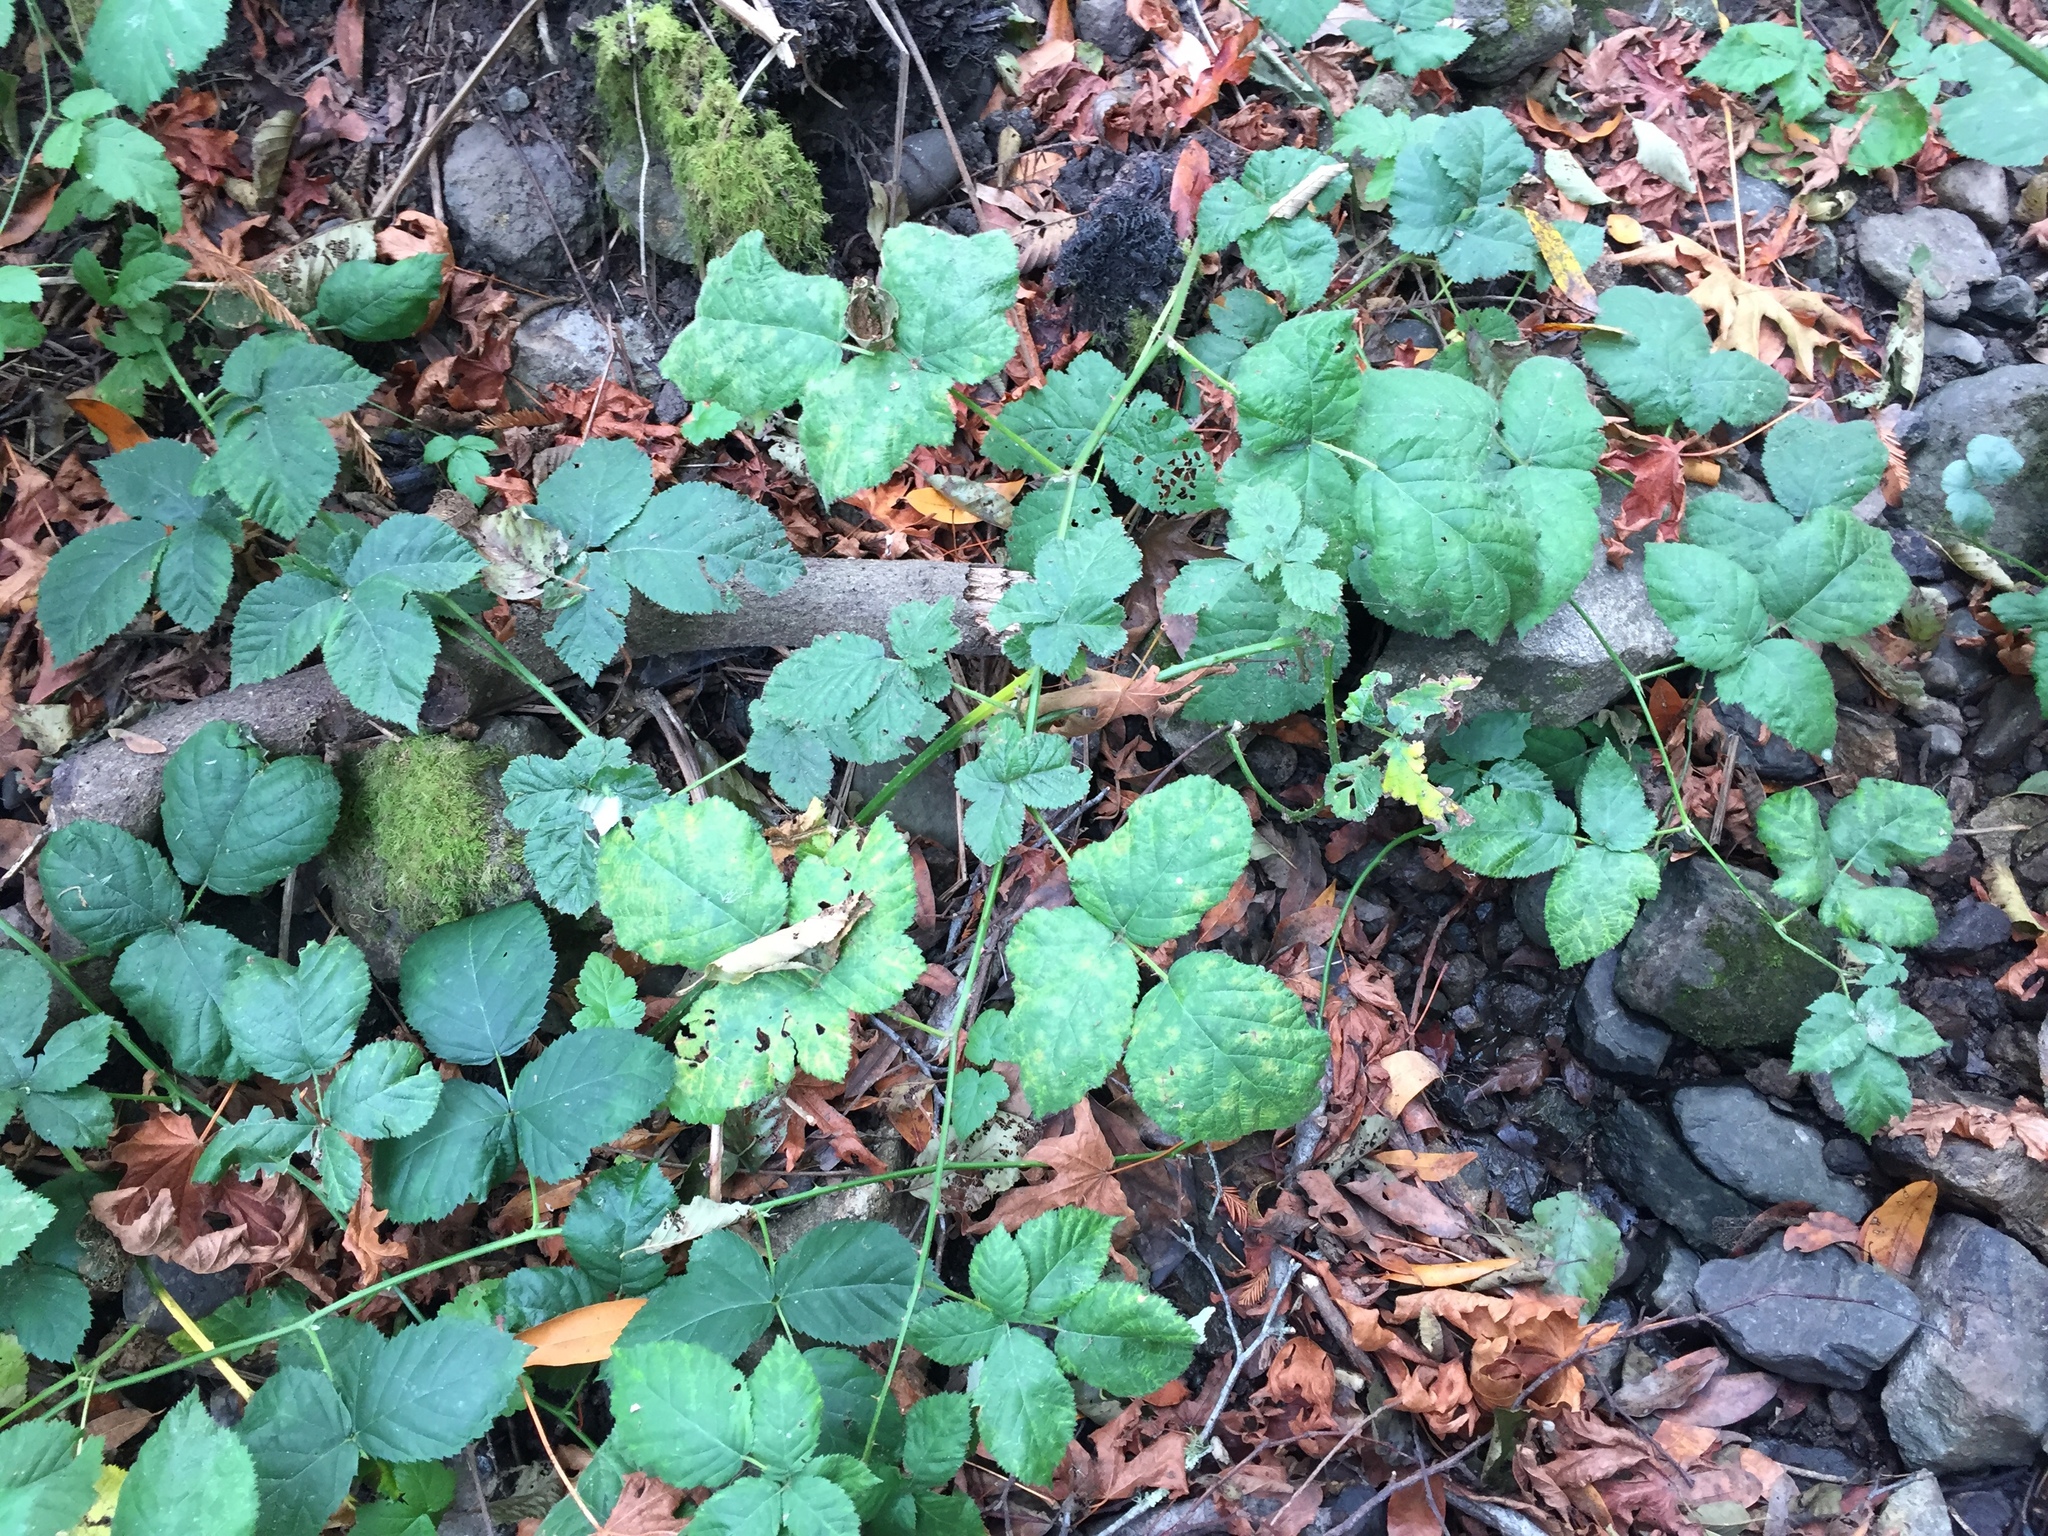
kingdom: Plantae
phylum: Tracheophyta
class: Magnoliopsida
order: Rosales
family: Rosaceae
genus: Rubus
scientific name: Rubus ursinus
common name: Pacific blackberry
